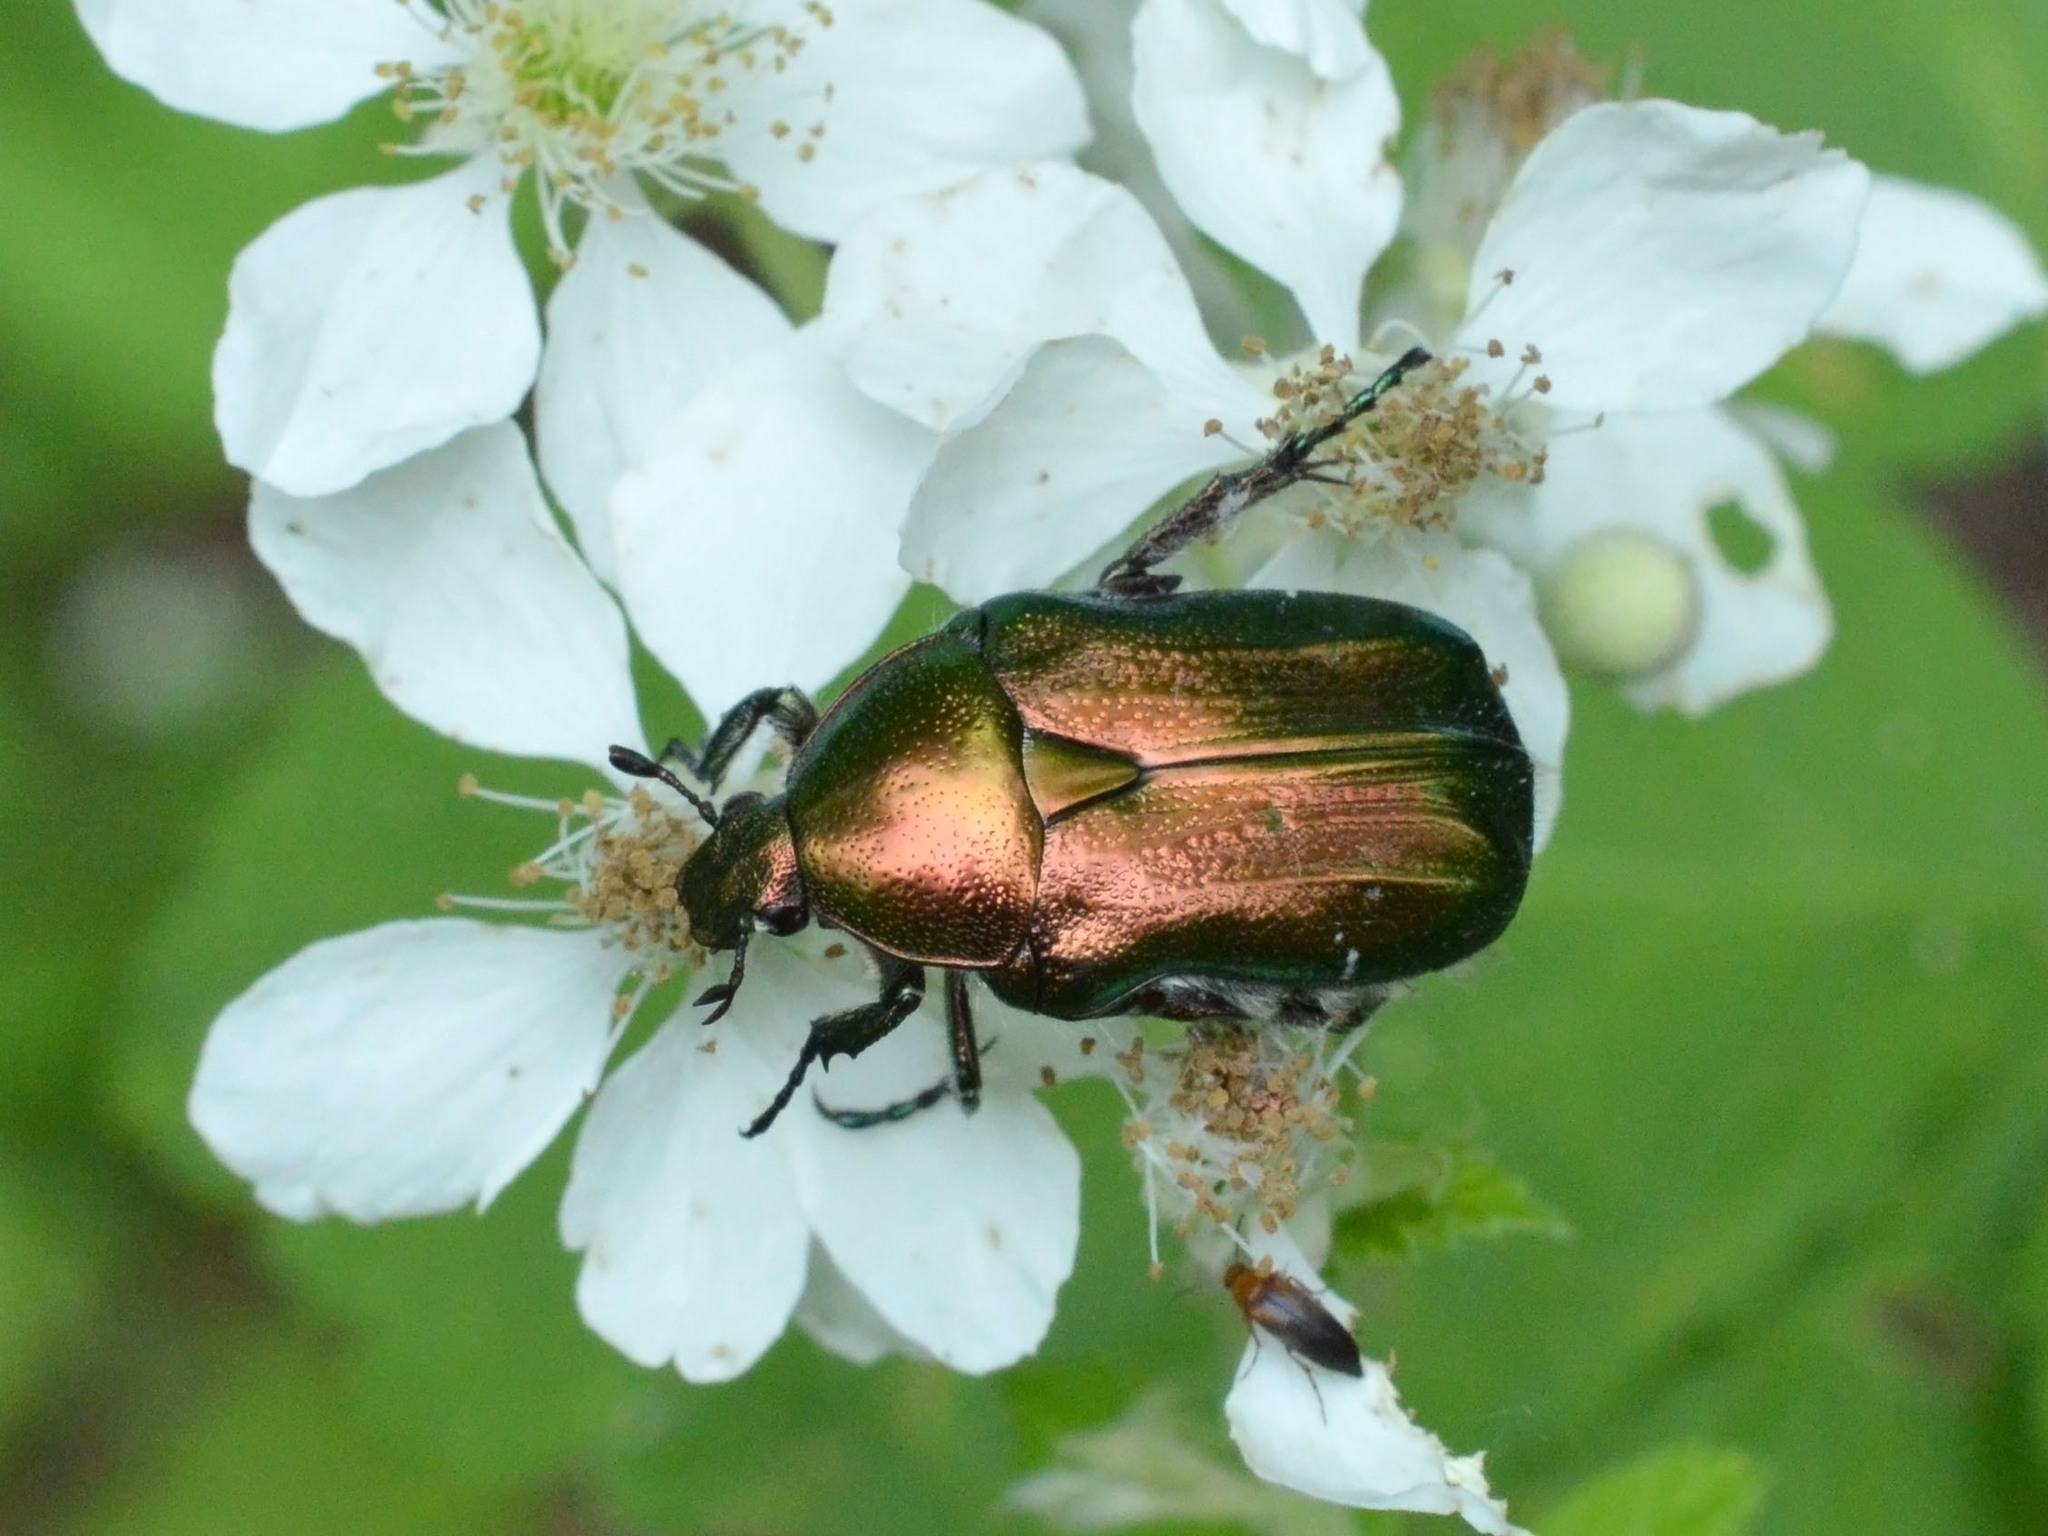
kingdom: Animalia
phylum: Arthropoda
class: Insecta
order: Coleoptera
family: Scarabaeidae
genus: Cetonia
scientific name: Cetonia aurata
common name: Rose chafer
